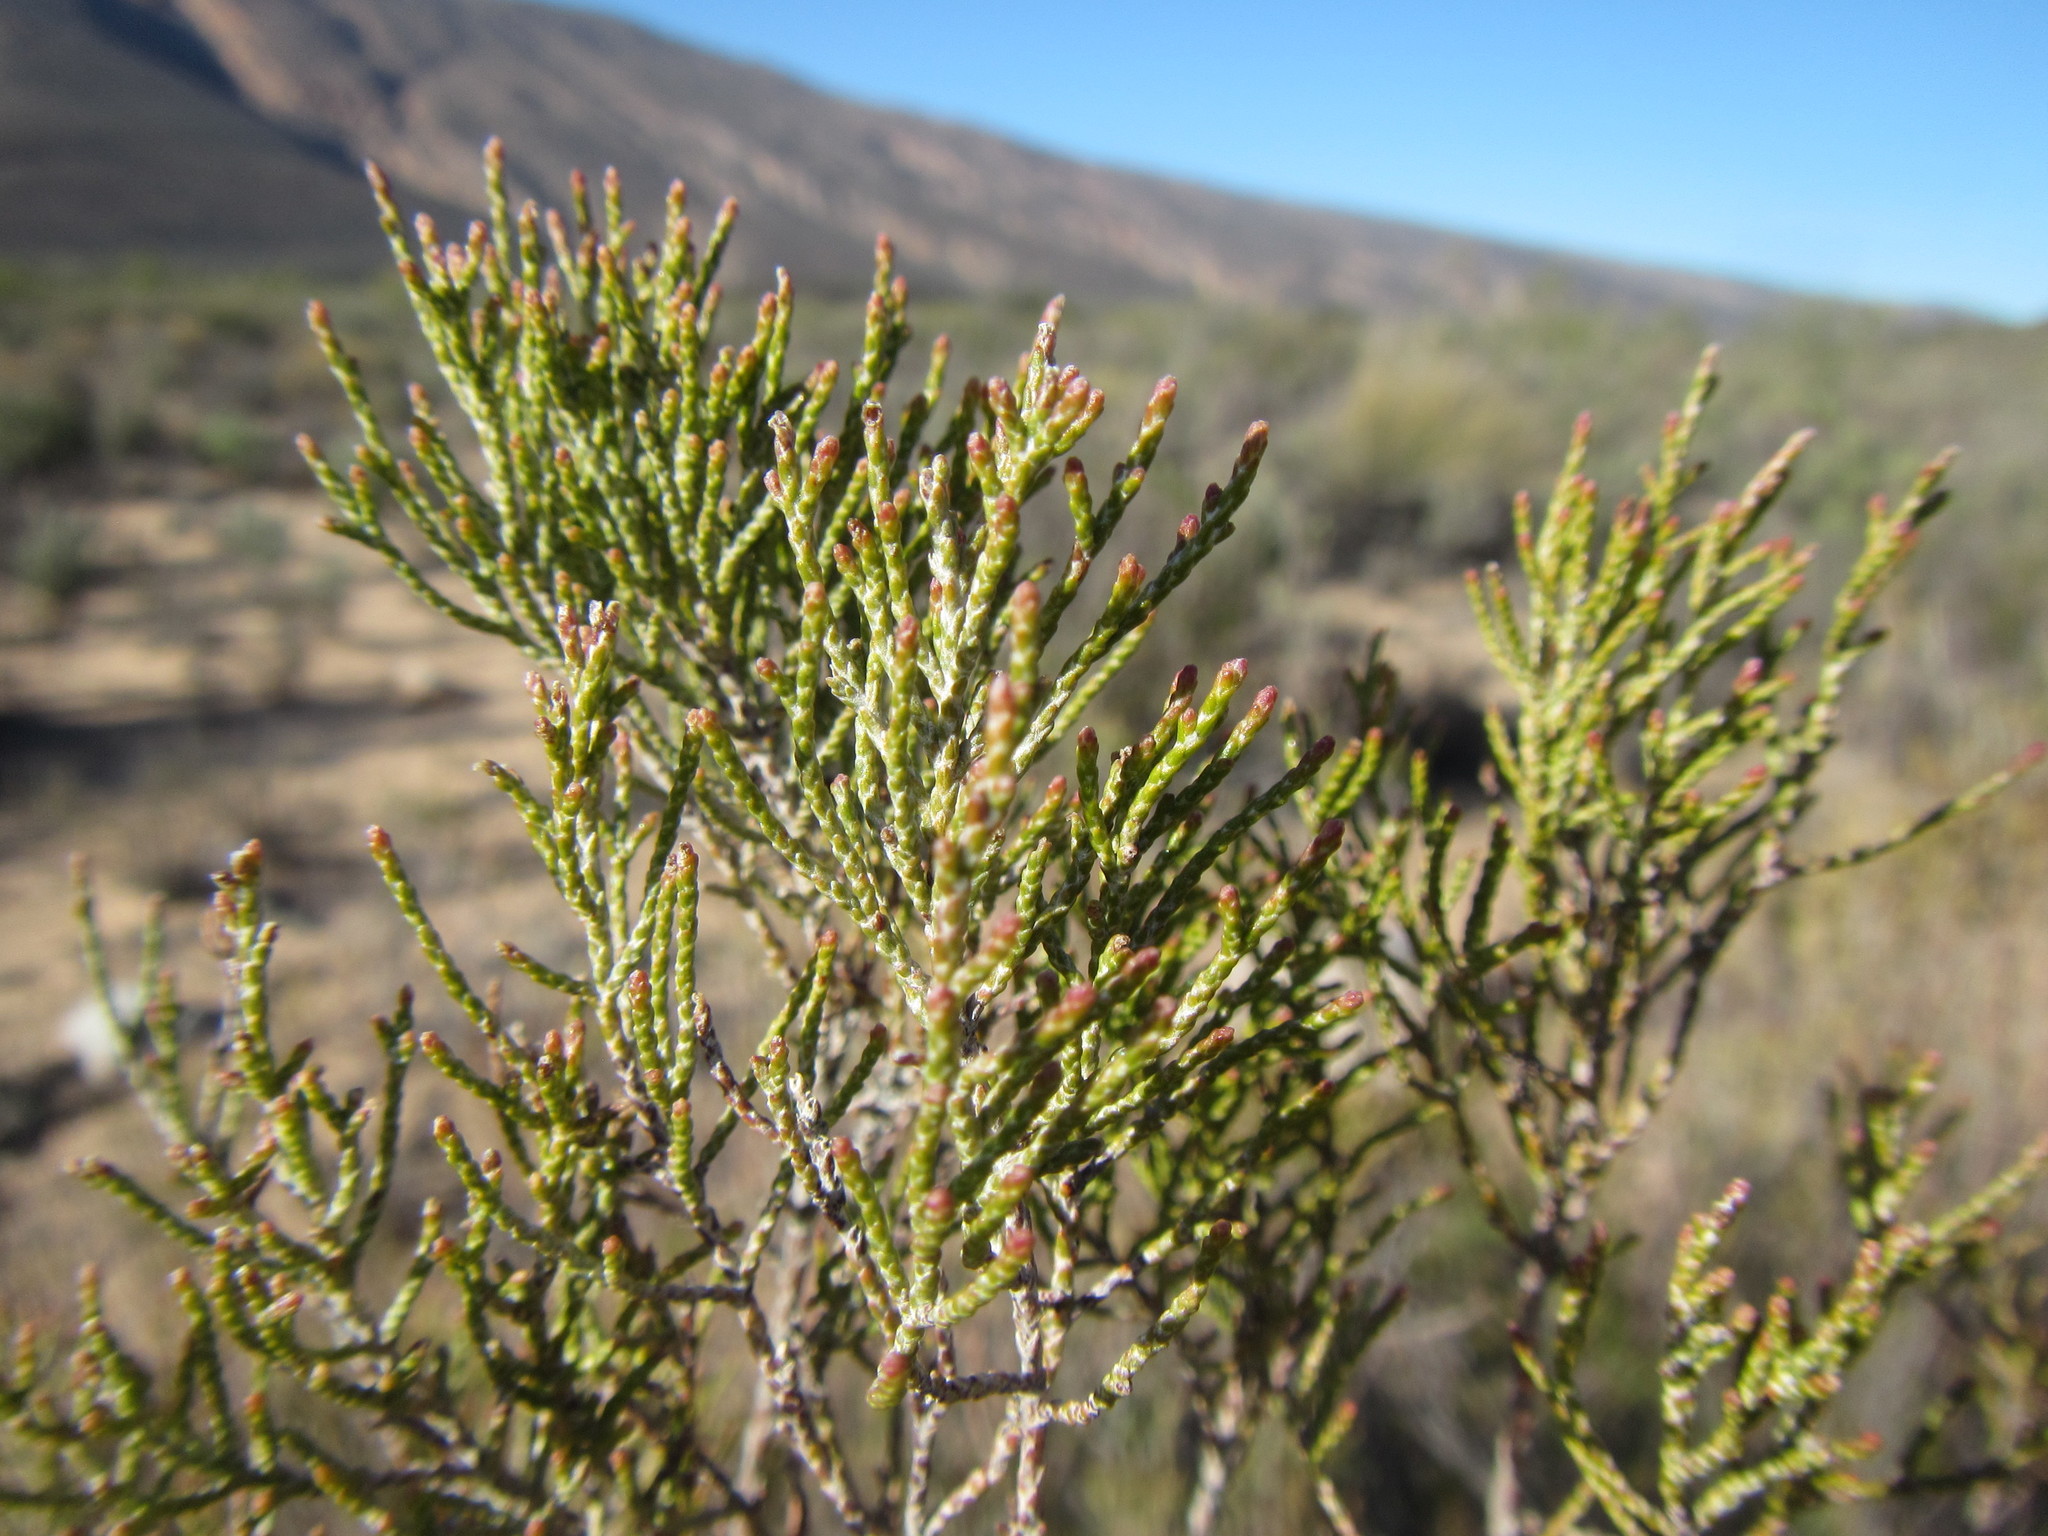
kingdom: Plantae
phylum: Tracheophyta
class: Magnoliopsida
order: Asterales
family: Asteraceae
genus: Dicerothamnus
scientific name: Dicerothamnus rhinocerotis
